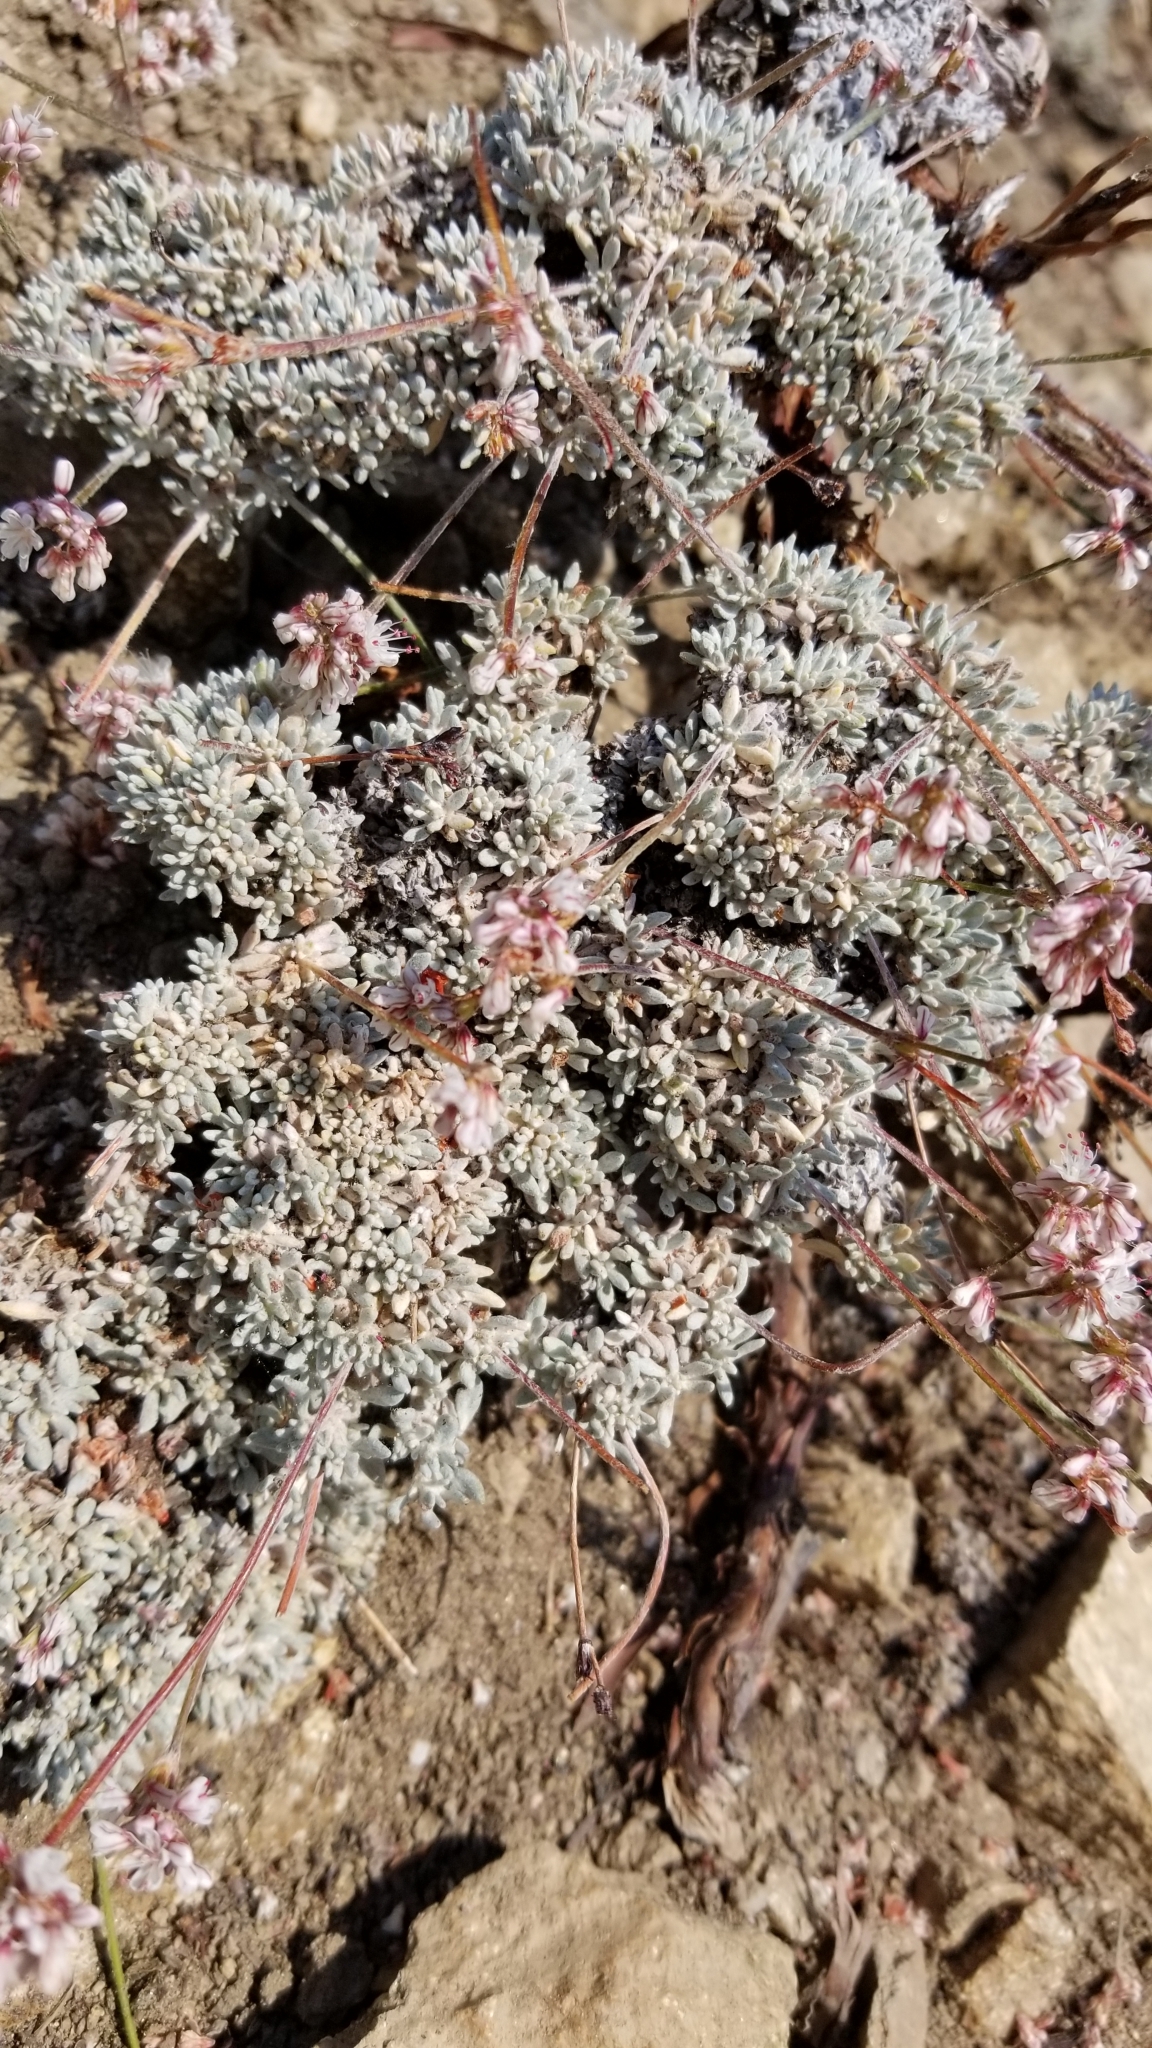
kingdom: Plantae
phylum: Tracheophyta
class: Magnoliopsida
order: Caryophyllales
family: Polygonaceae
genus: Eriogonum
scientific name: Eriogonum wrightii
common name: Bastard-sage
